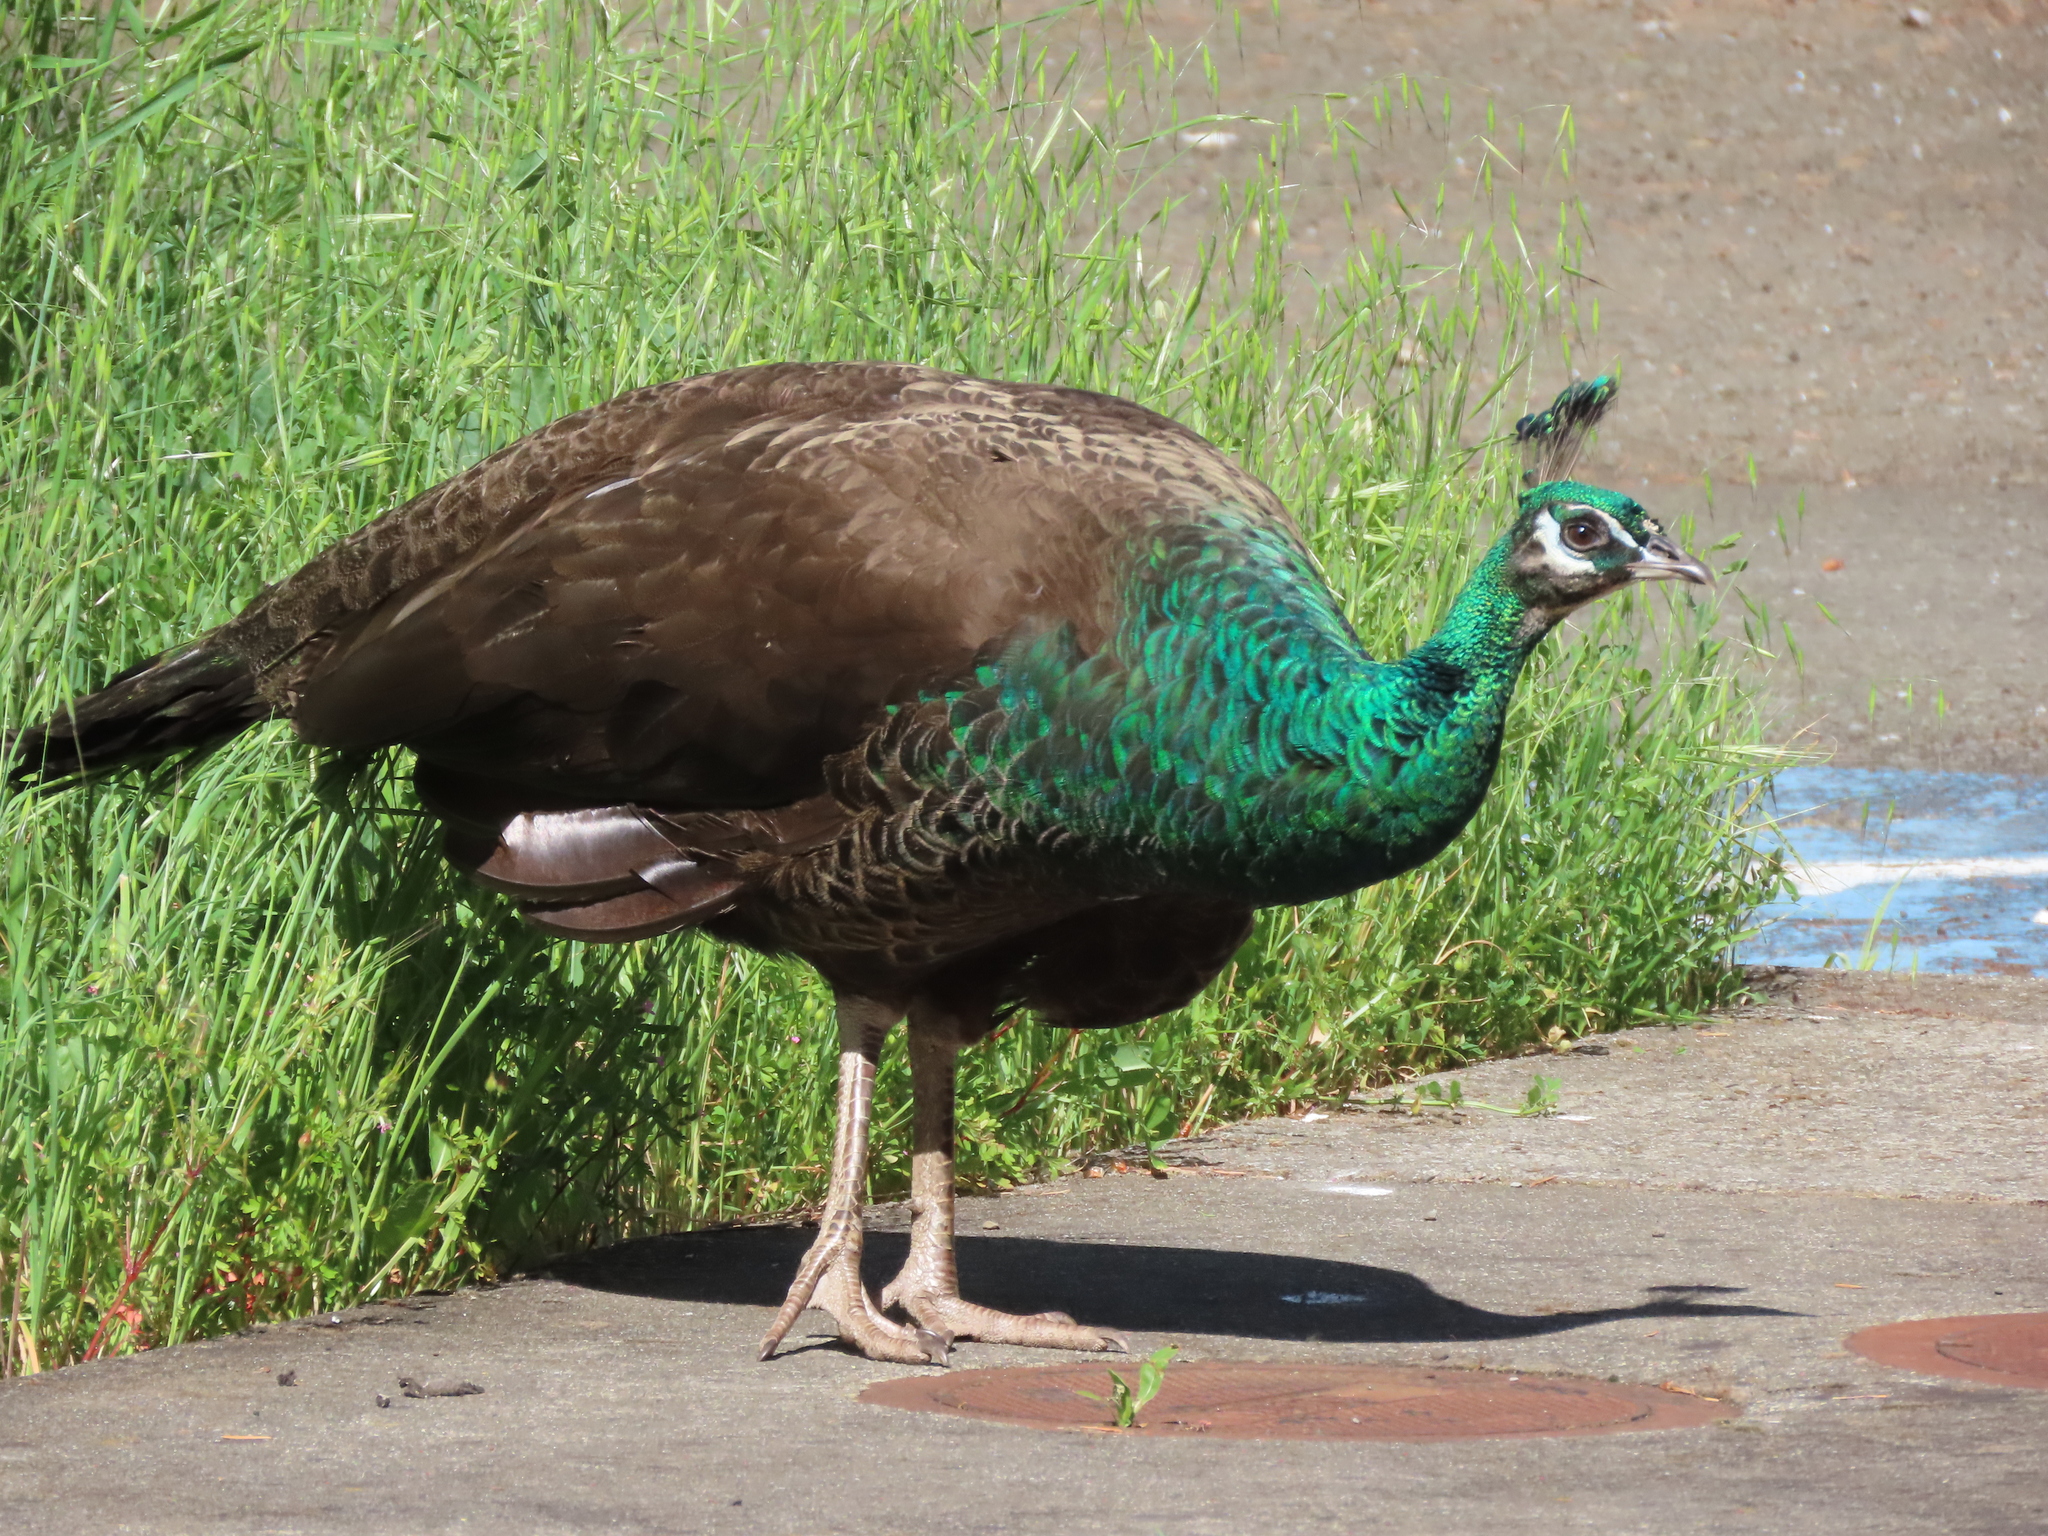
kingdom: Animalia
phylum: Chordata
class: Aves
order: Galliformes
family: Phasianidae
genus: Pavo
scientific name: Pavo cristatus
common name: Indian peafowl
